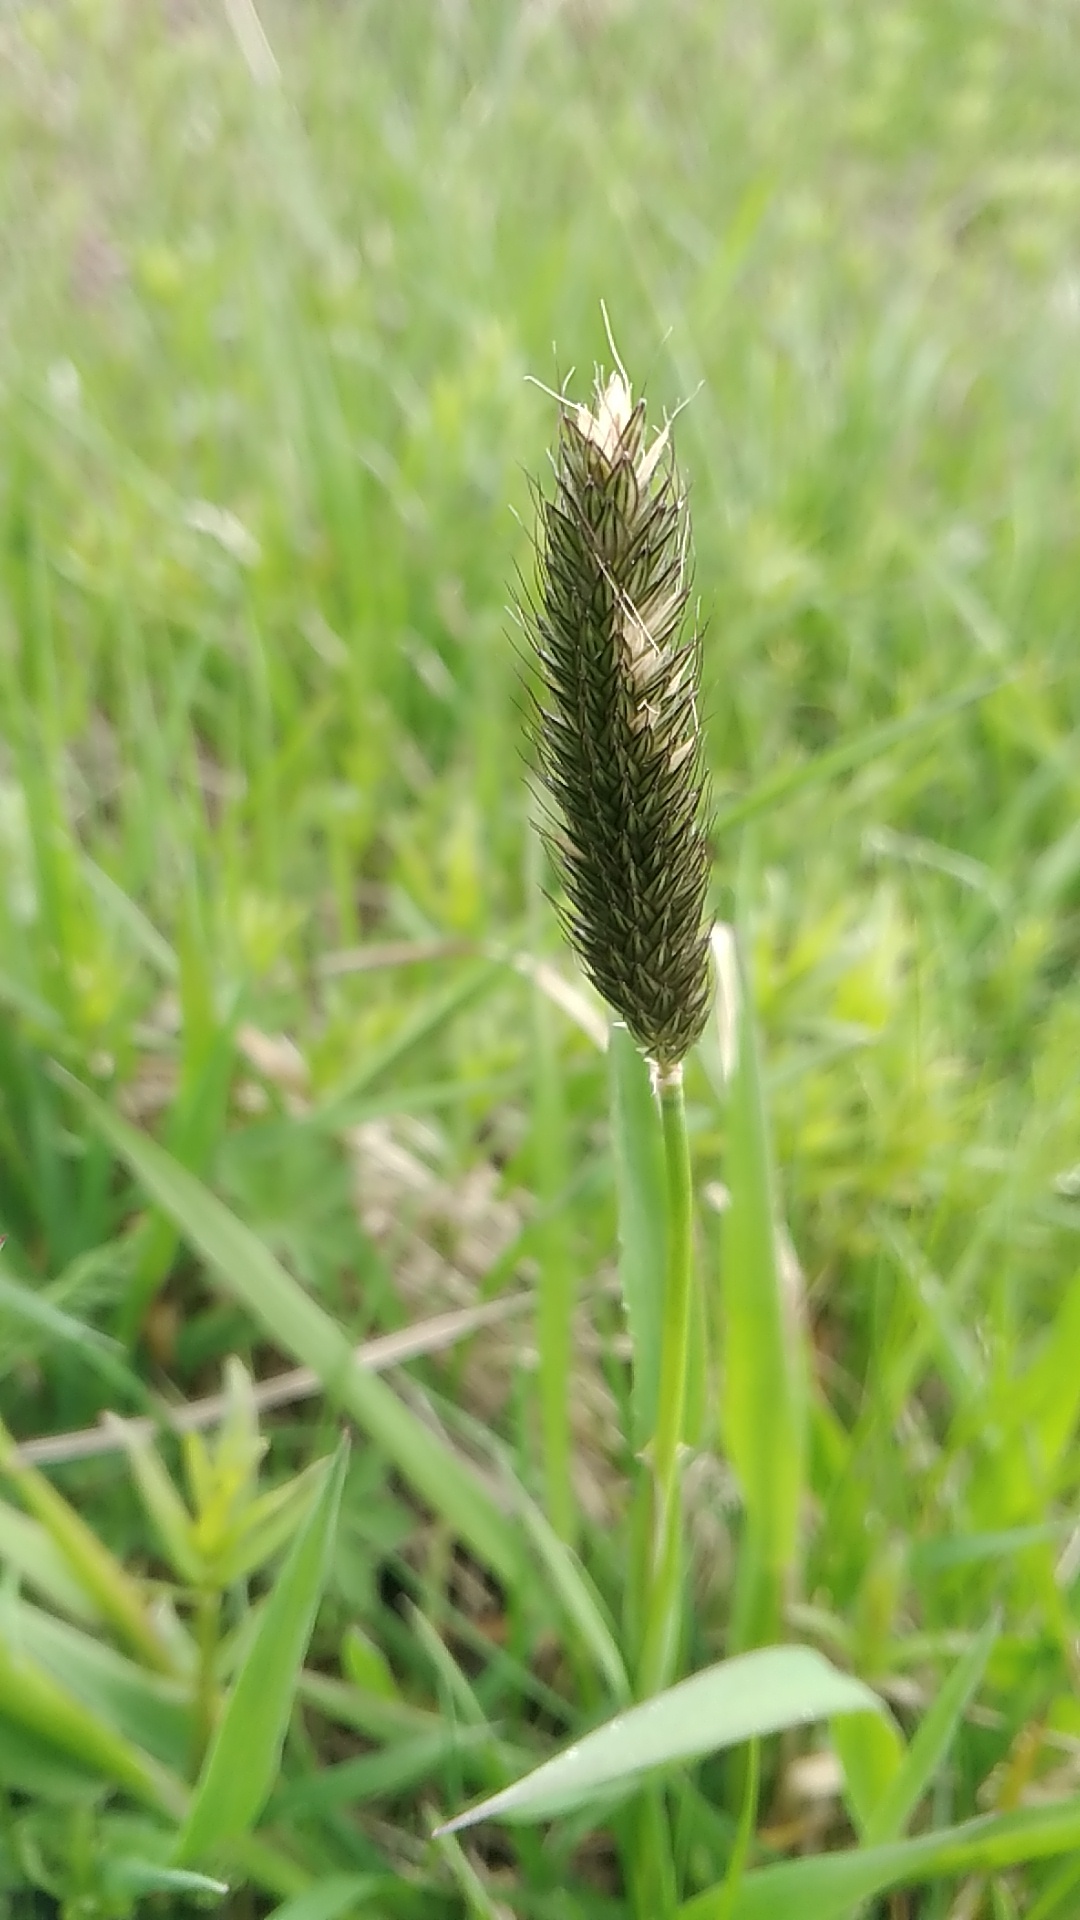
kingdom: Plantae
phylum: Tracheophyta
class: Liliopsida
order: Poales
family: Poaceae
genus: Alopecurus
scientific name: Alopecurus pratensis
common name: Meadow foxtail
